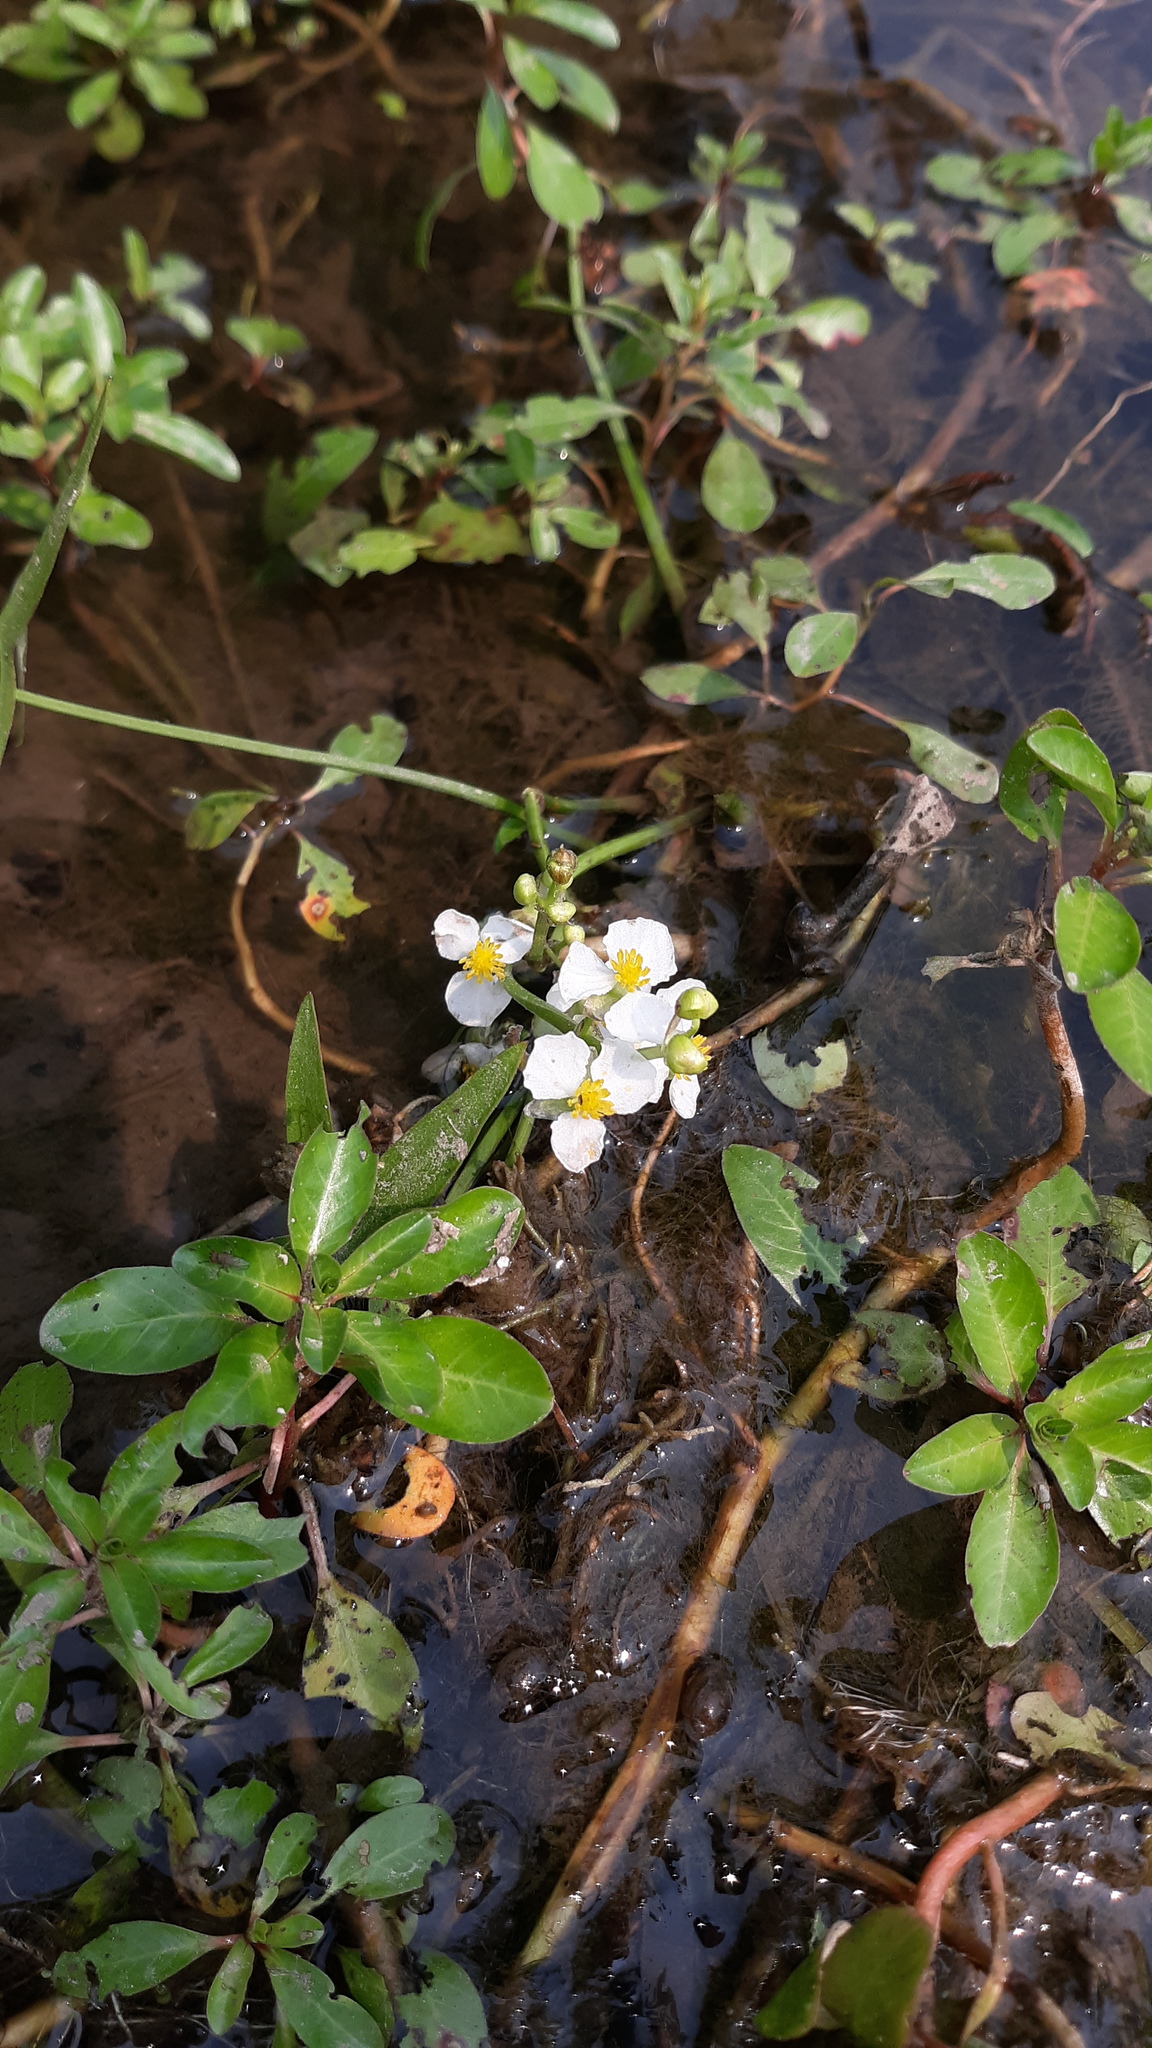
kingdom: Plantae
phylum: Tracheophyta
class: Liliopsida
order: Alismatales
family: Alismataceae
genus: Sagittaria
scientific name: Sagittaria latifolia
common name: Duck-potato
